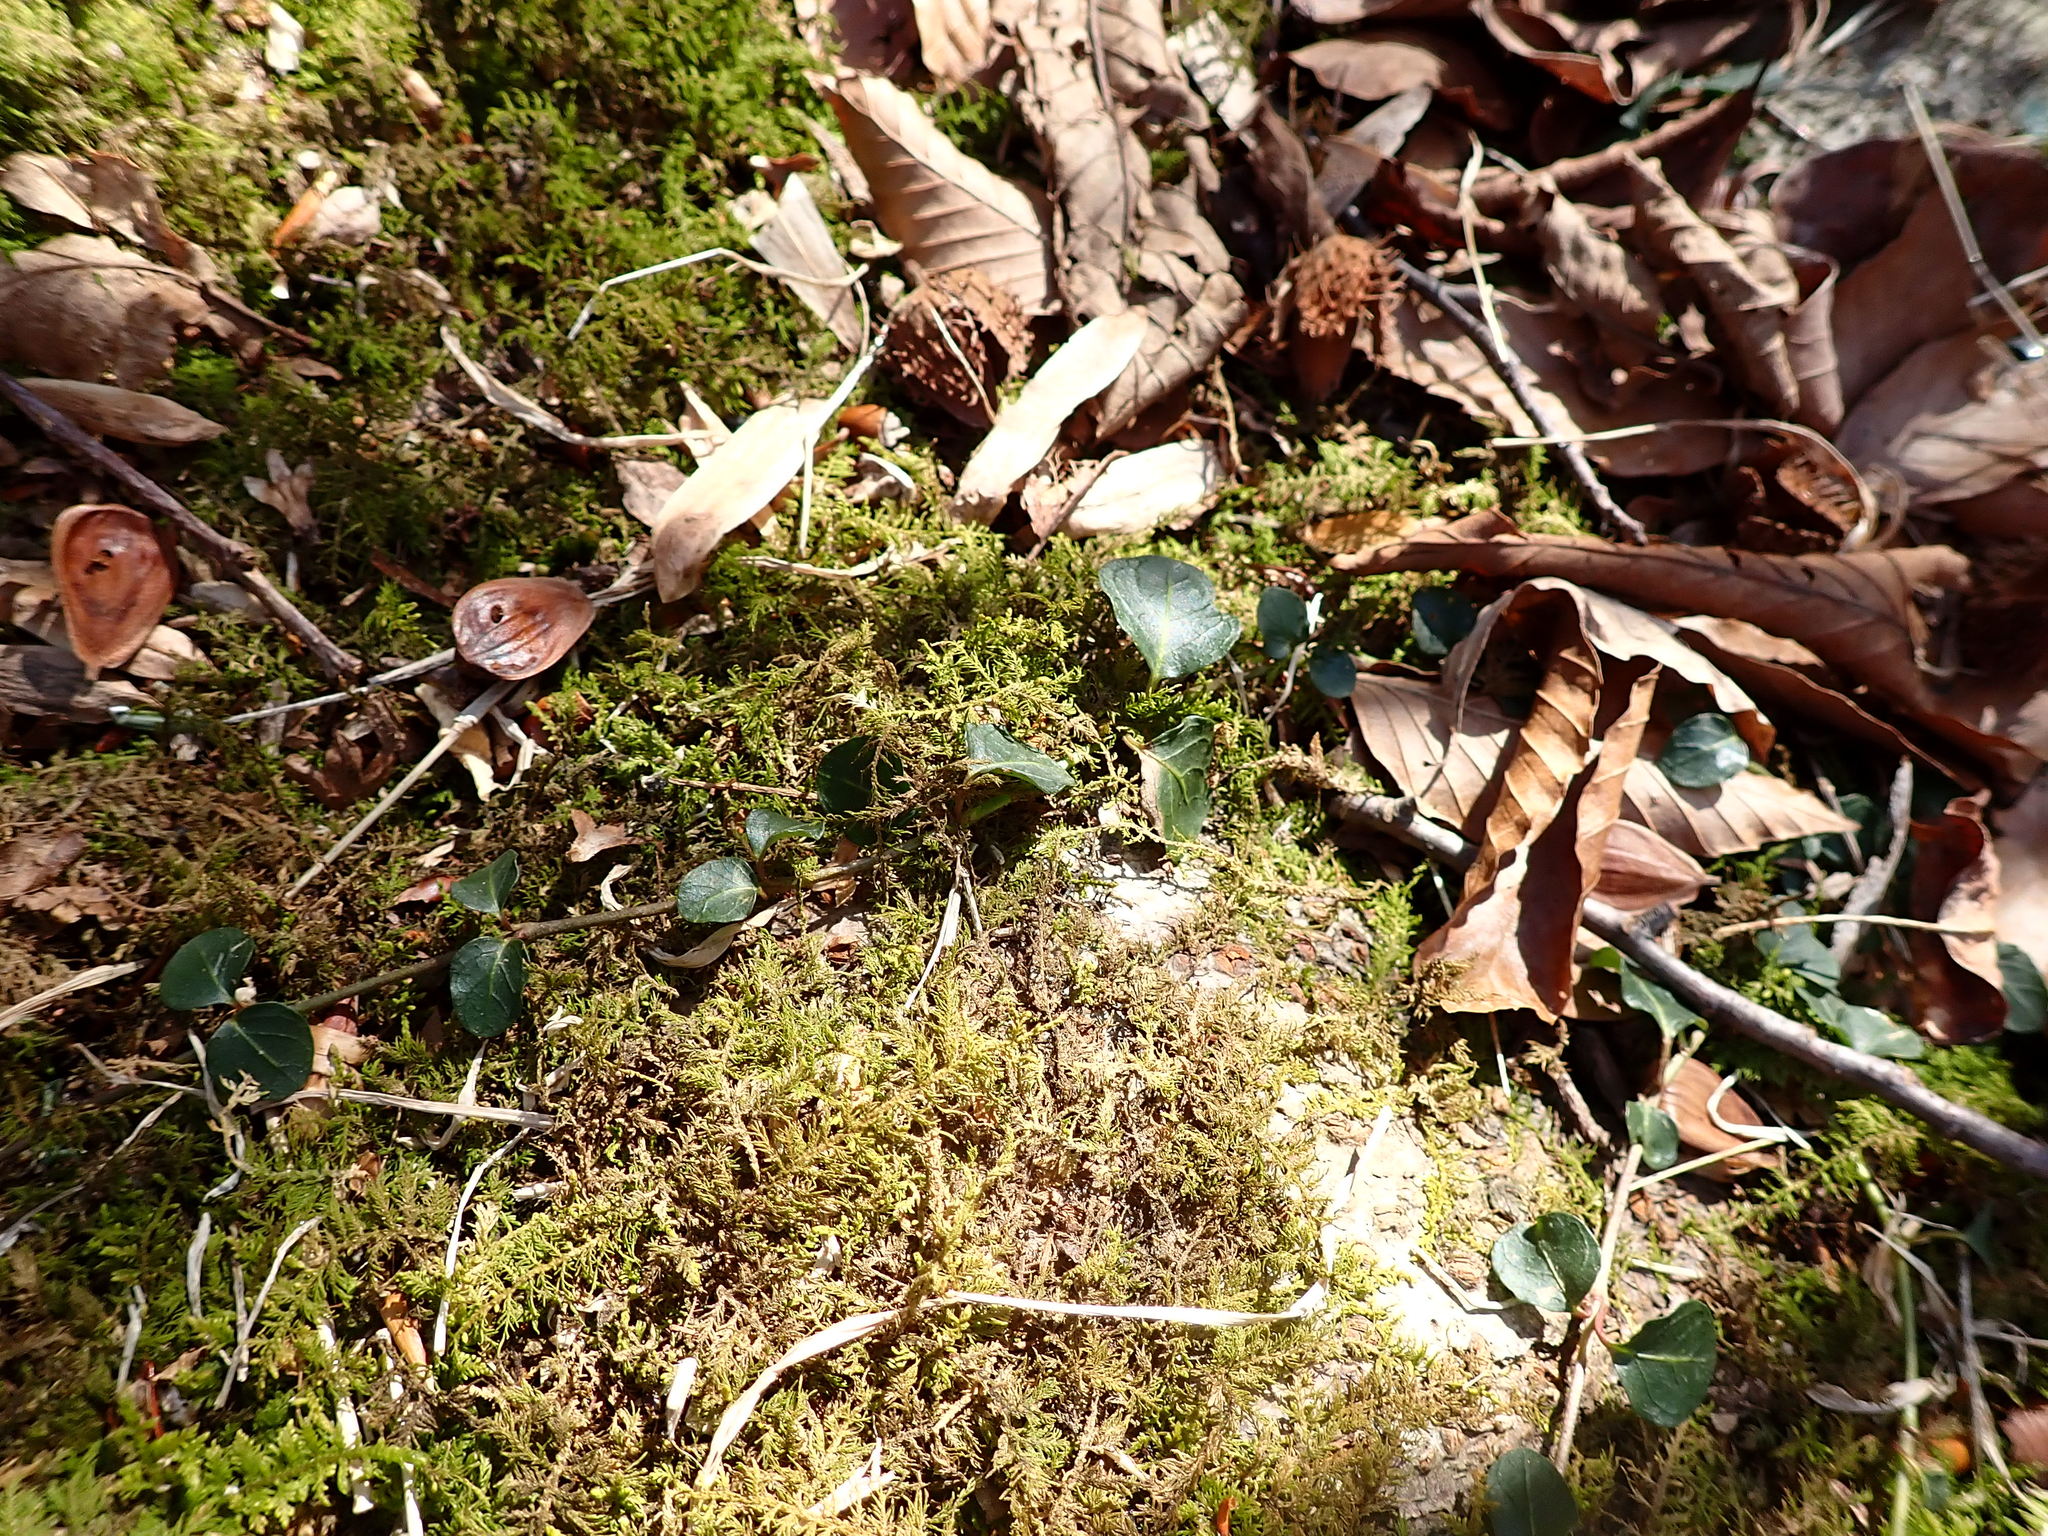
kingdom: Plantae
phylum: Tracheophyta
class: Magnoliopsida
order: Gentianales
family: Rubiaceae
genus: Mitchella
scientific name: Mitchella repens
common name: Partridge-berry
